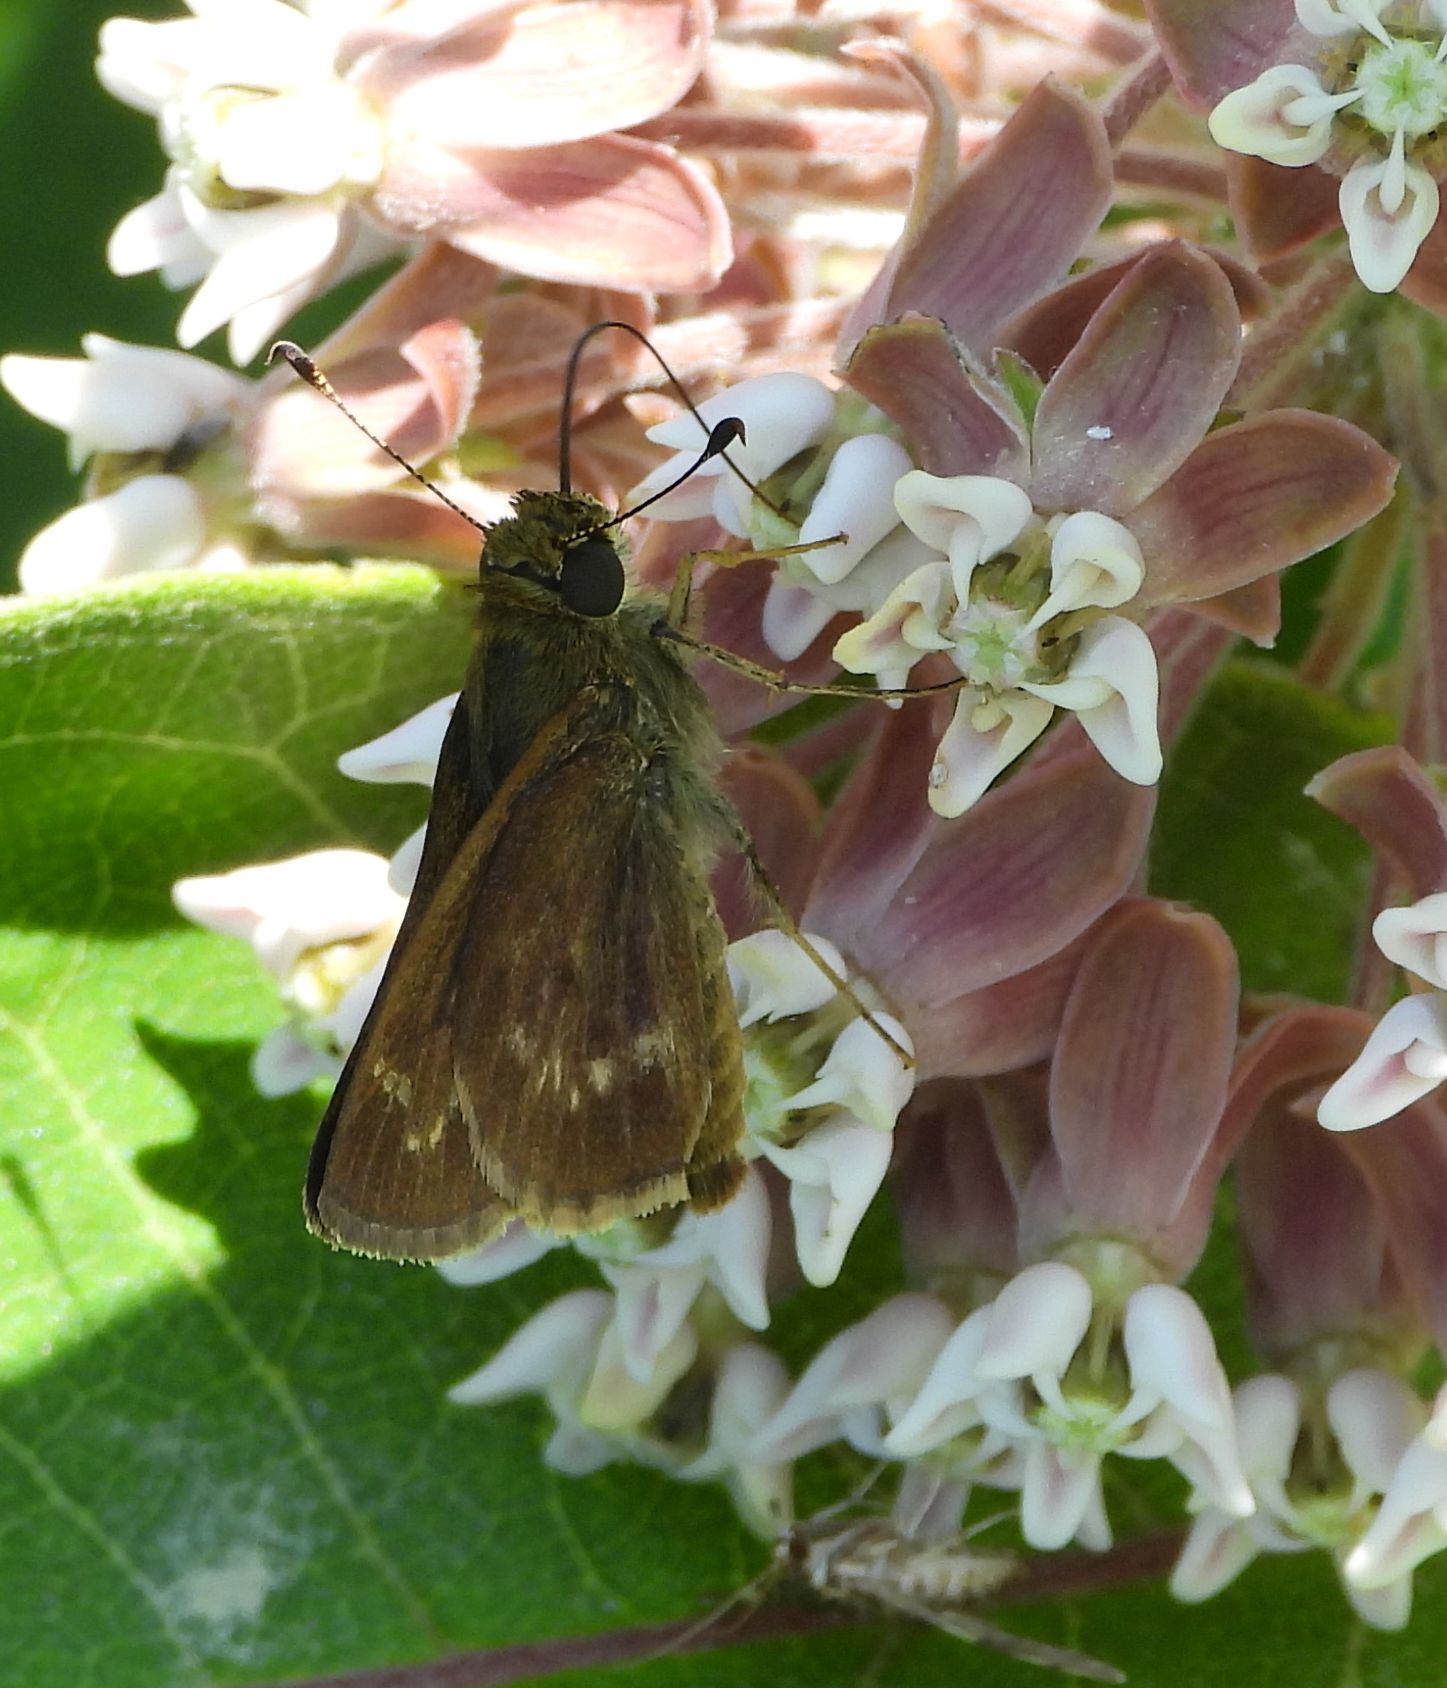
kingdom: Animalia
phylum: Arthropoda
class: Insecta
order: Lepidoptera
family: Hesperiidae
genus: Vernia
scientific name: Vernia verna
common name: Little glassywing
